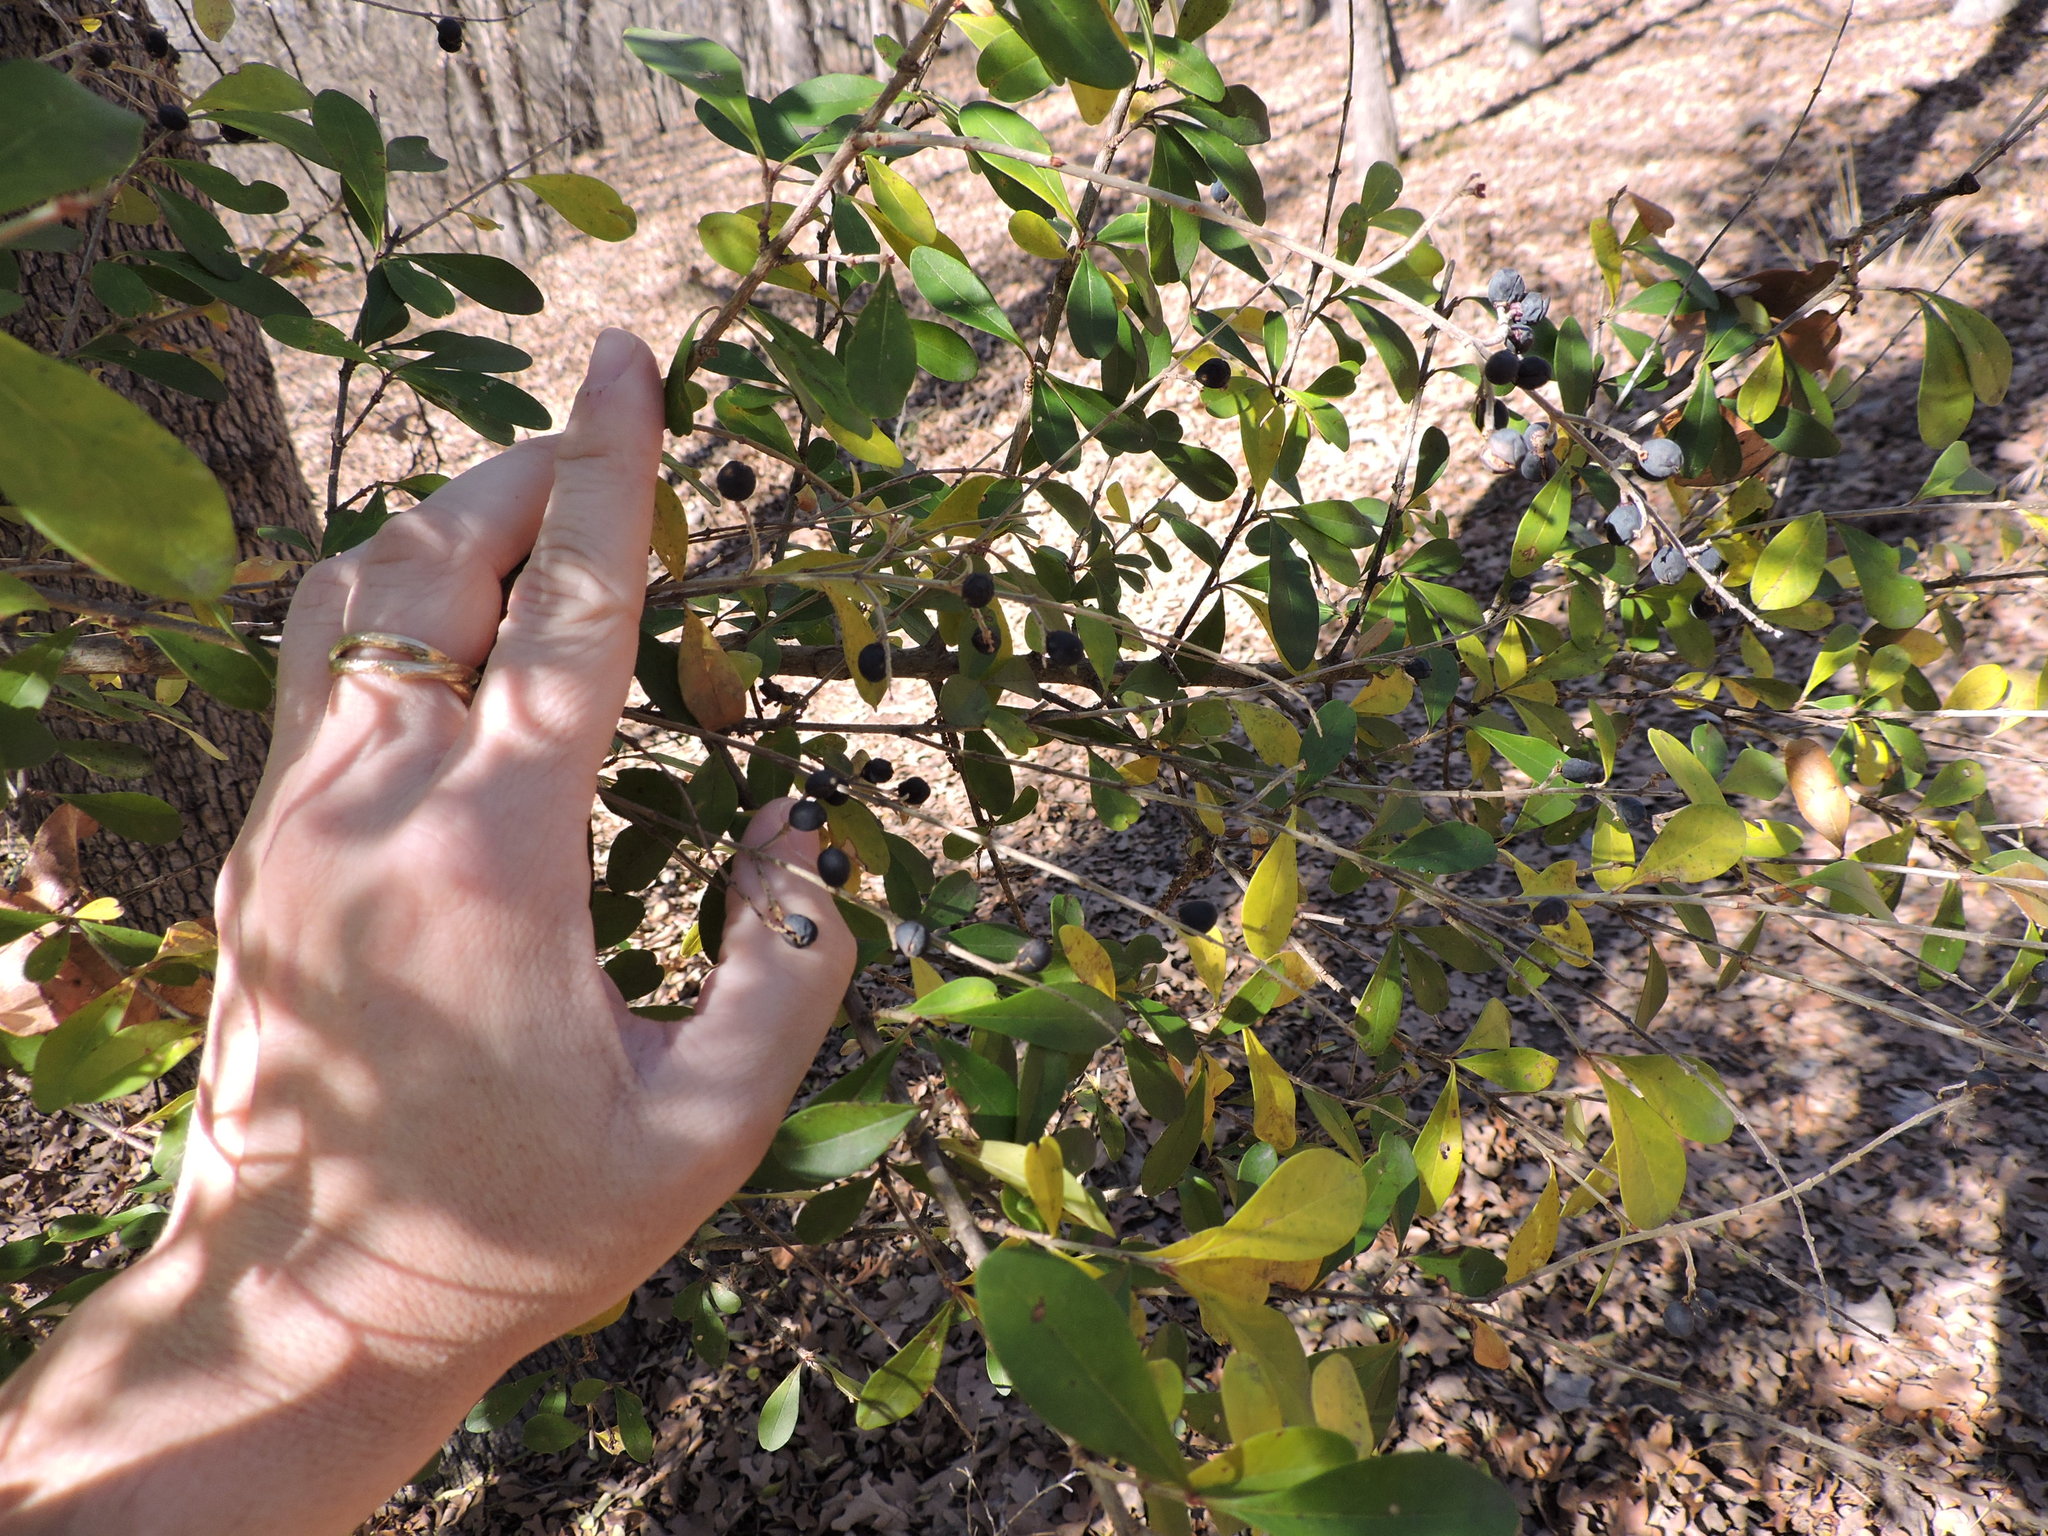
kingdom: Plantae
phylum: Tracheophyta
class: Magnoliopsida
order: Lamiales
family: Oleaceae
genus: Ligustrum
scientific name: Ligustrum quihoui
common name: Waxyleaf privet
